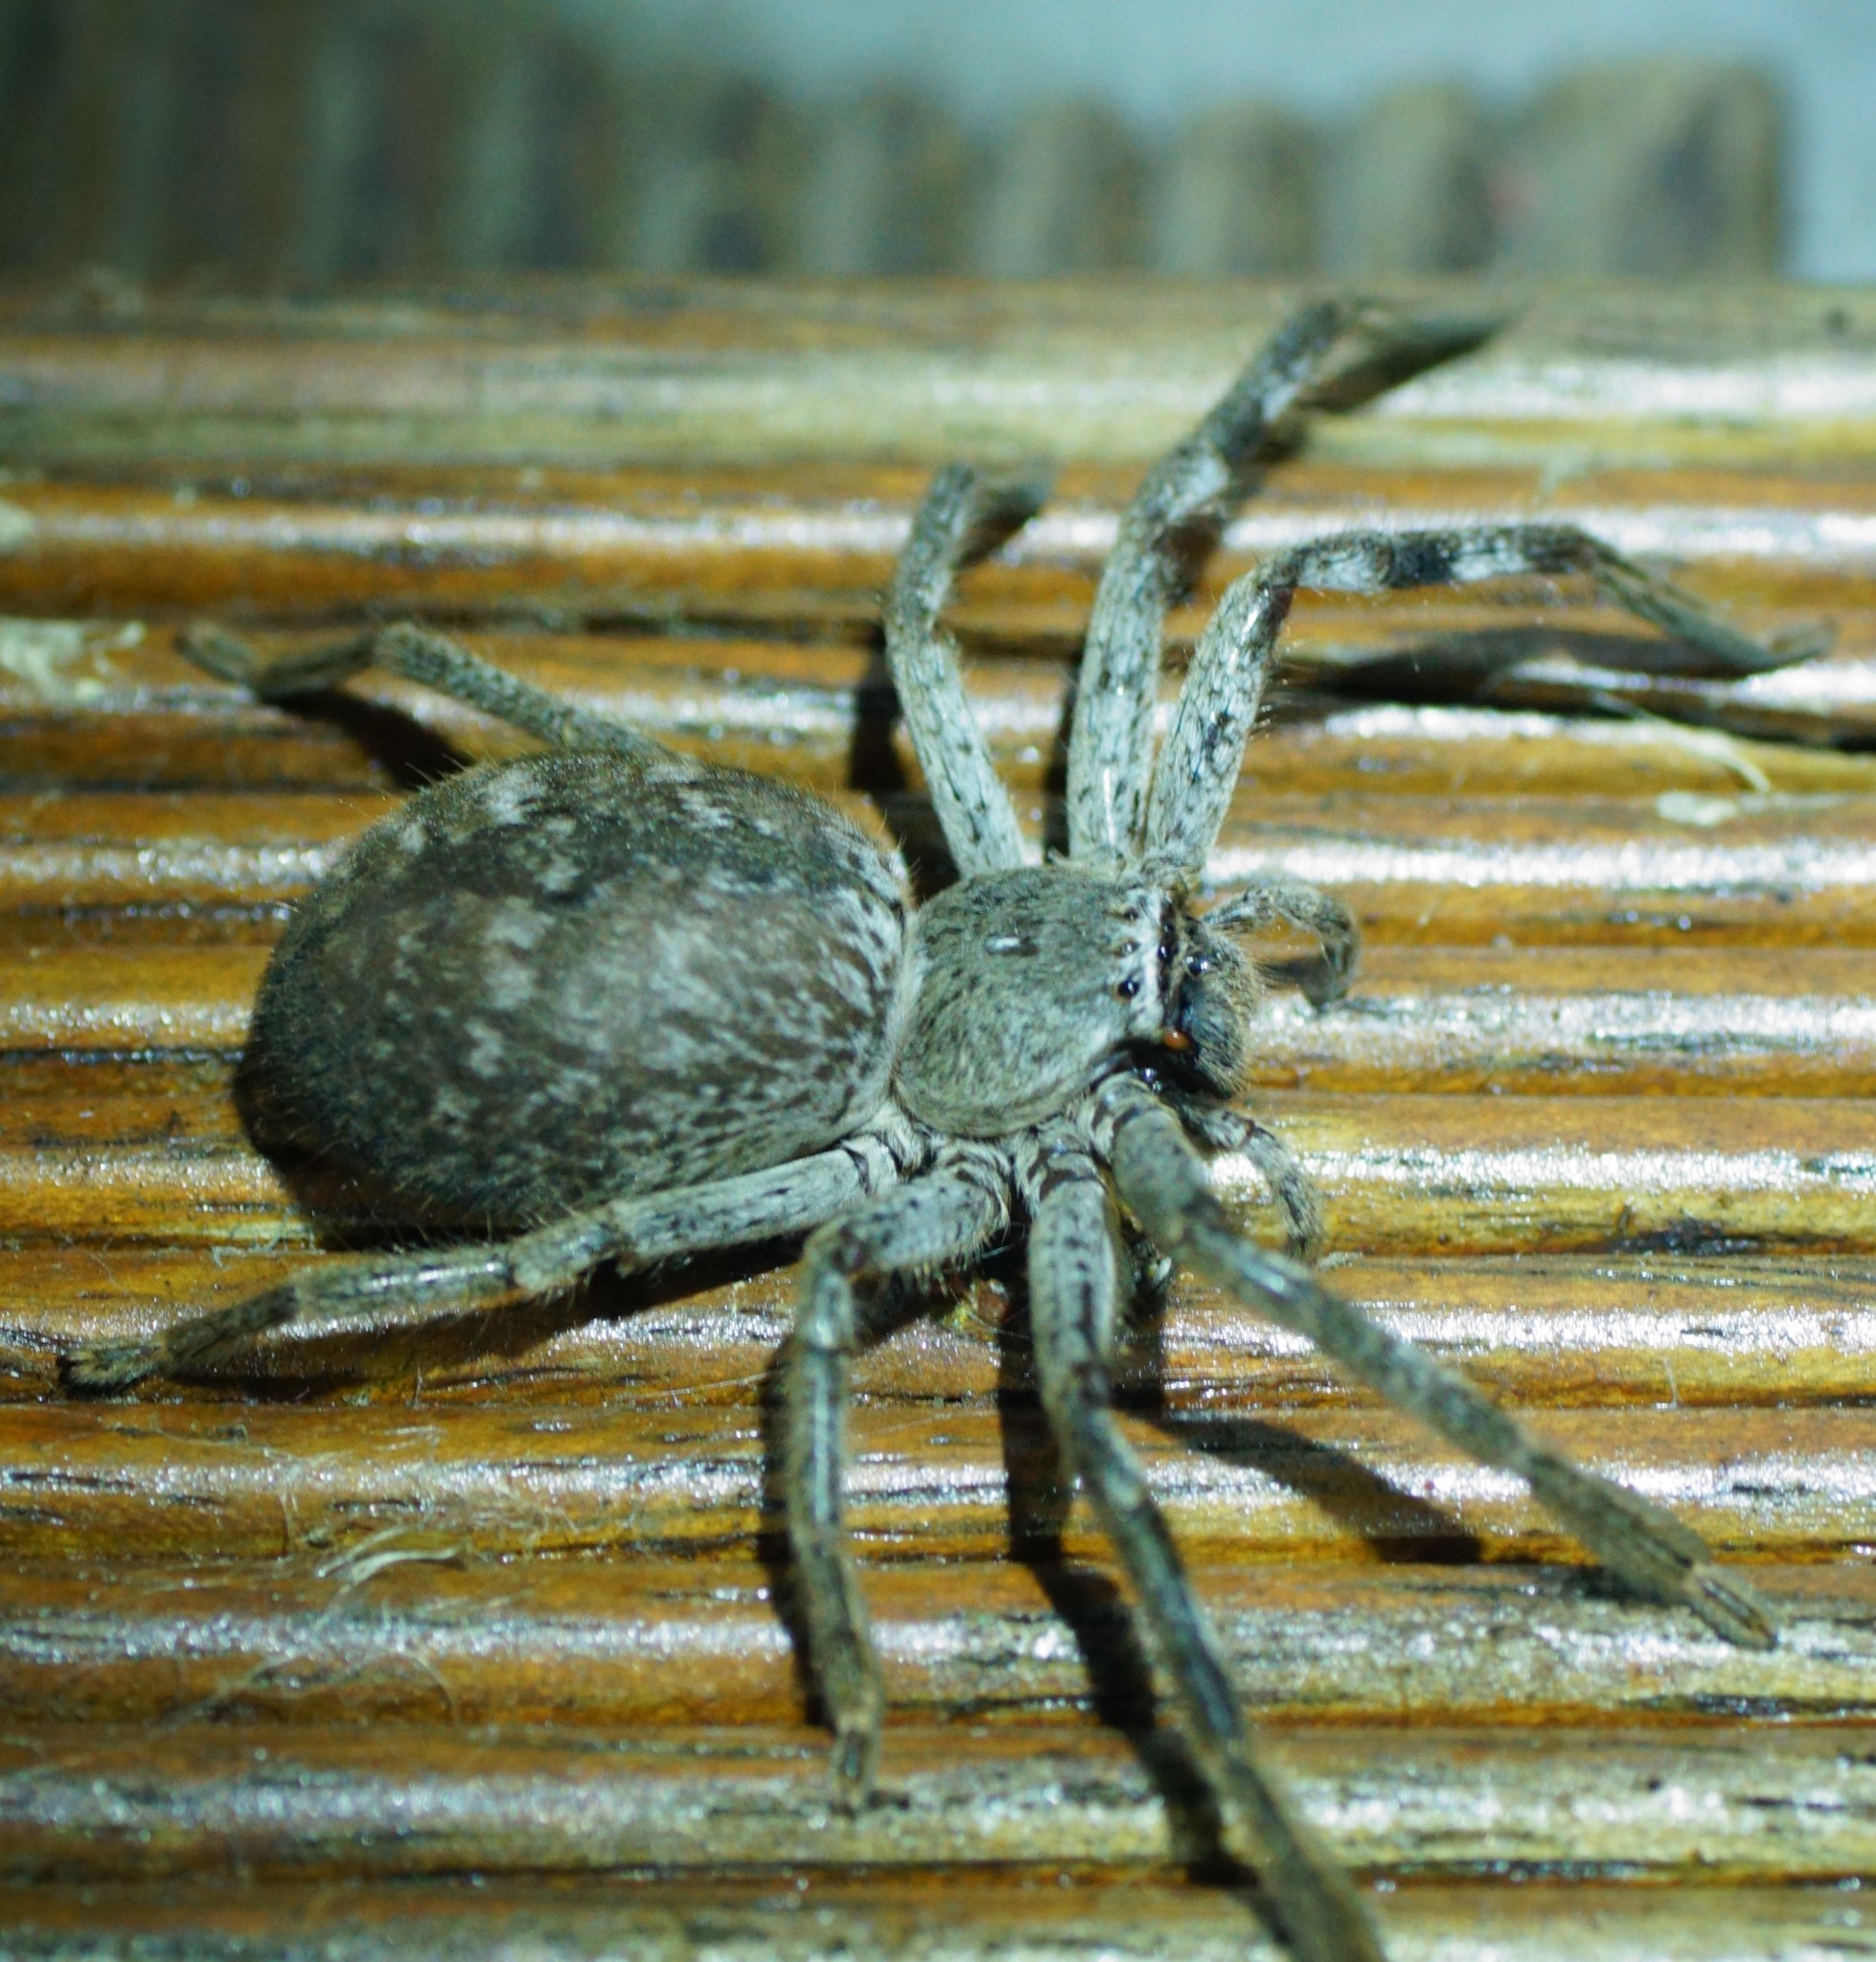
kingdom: Animalia
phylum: Arthropoda
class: Arachnida
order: Araneae
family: Sparassidae
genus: Isopedella
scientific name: Isopedella victorialis
